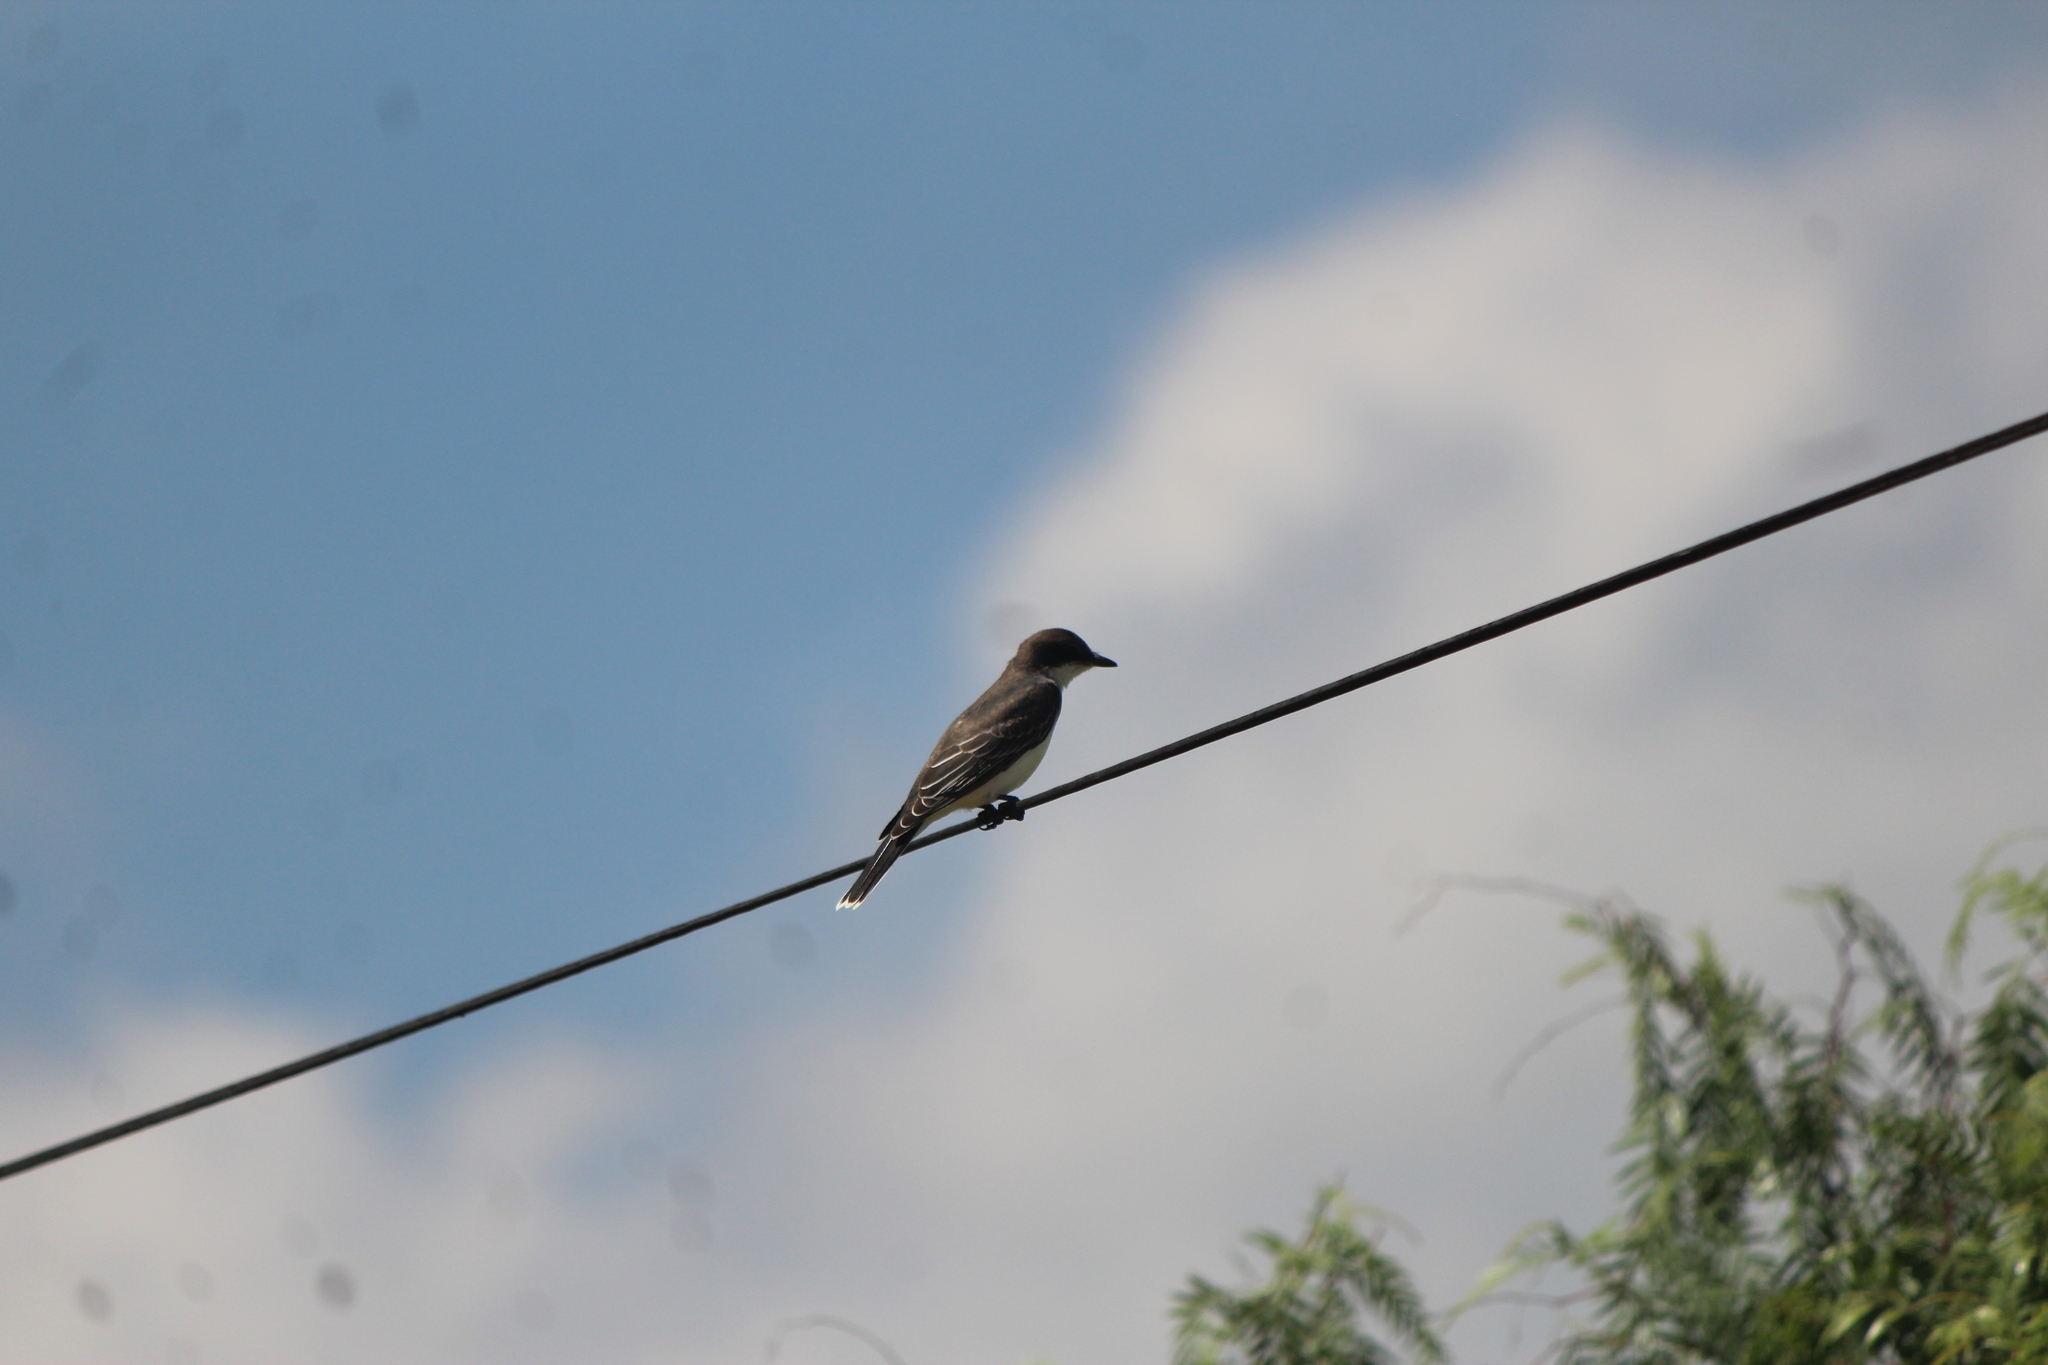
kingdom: Animalia
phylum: Chordata
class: Aves
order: Passeriformes
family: Tyrannidae
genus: Tyrannus
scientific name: Tyrannus tyrannus
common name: Eastern kingbird
